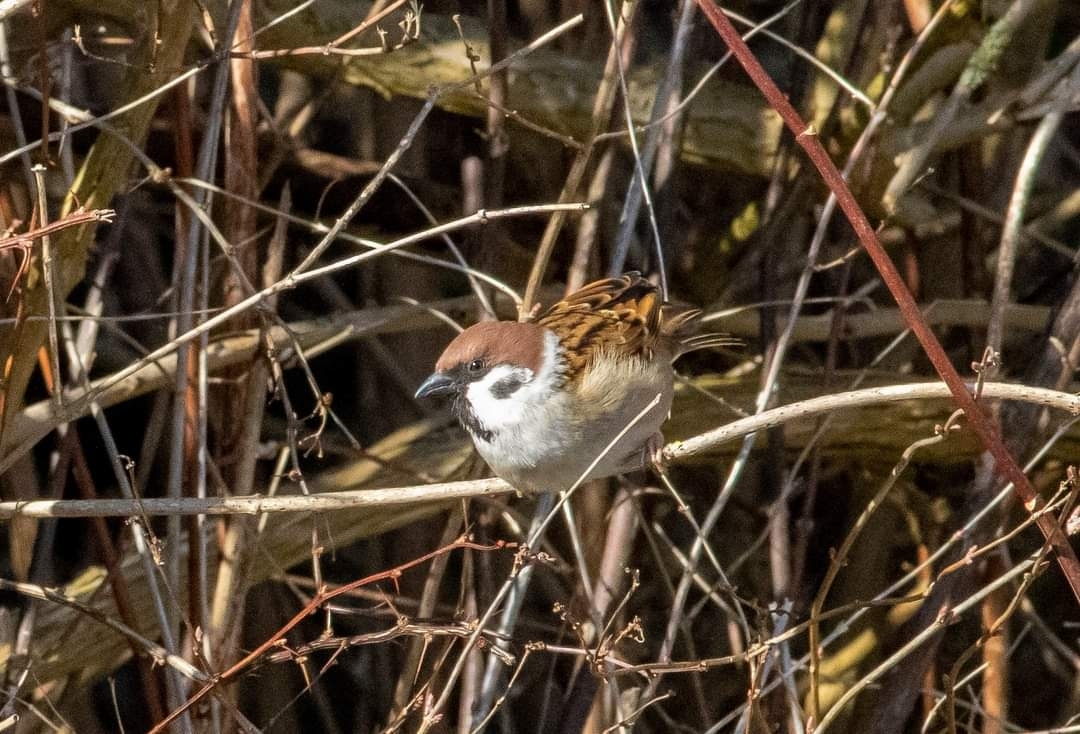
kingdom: Animalia
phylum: Chordata
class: Aves
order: Passeriformes
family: Passeridae
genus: Passer
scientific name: Passer montanus
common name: Eurasian tree sparrow
